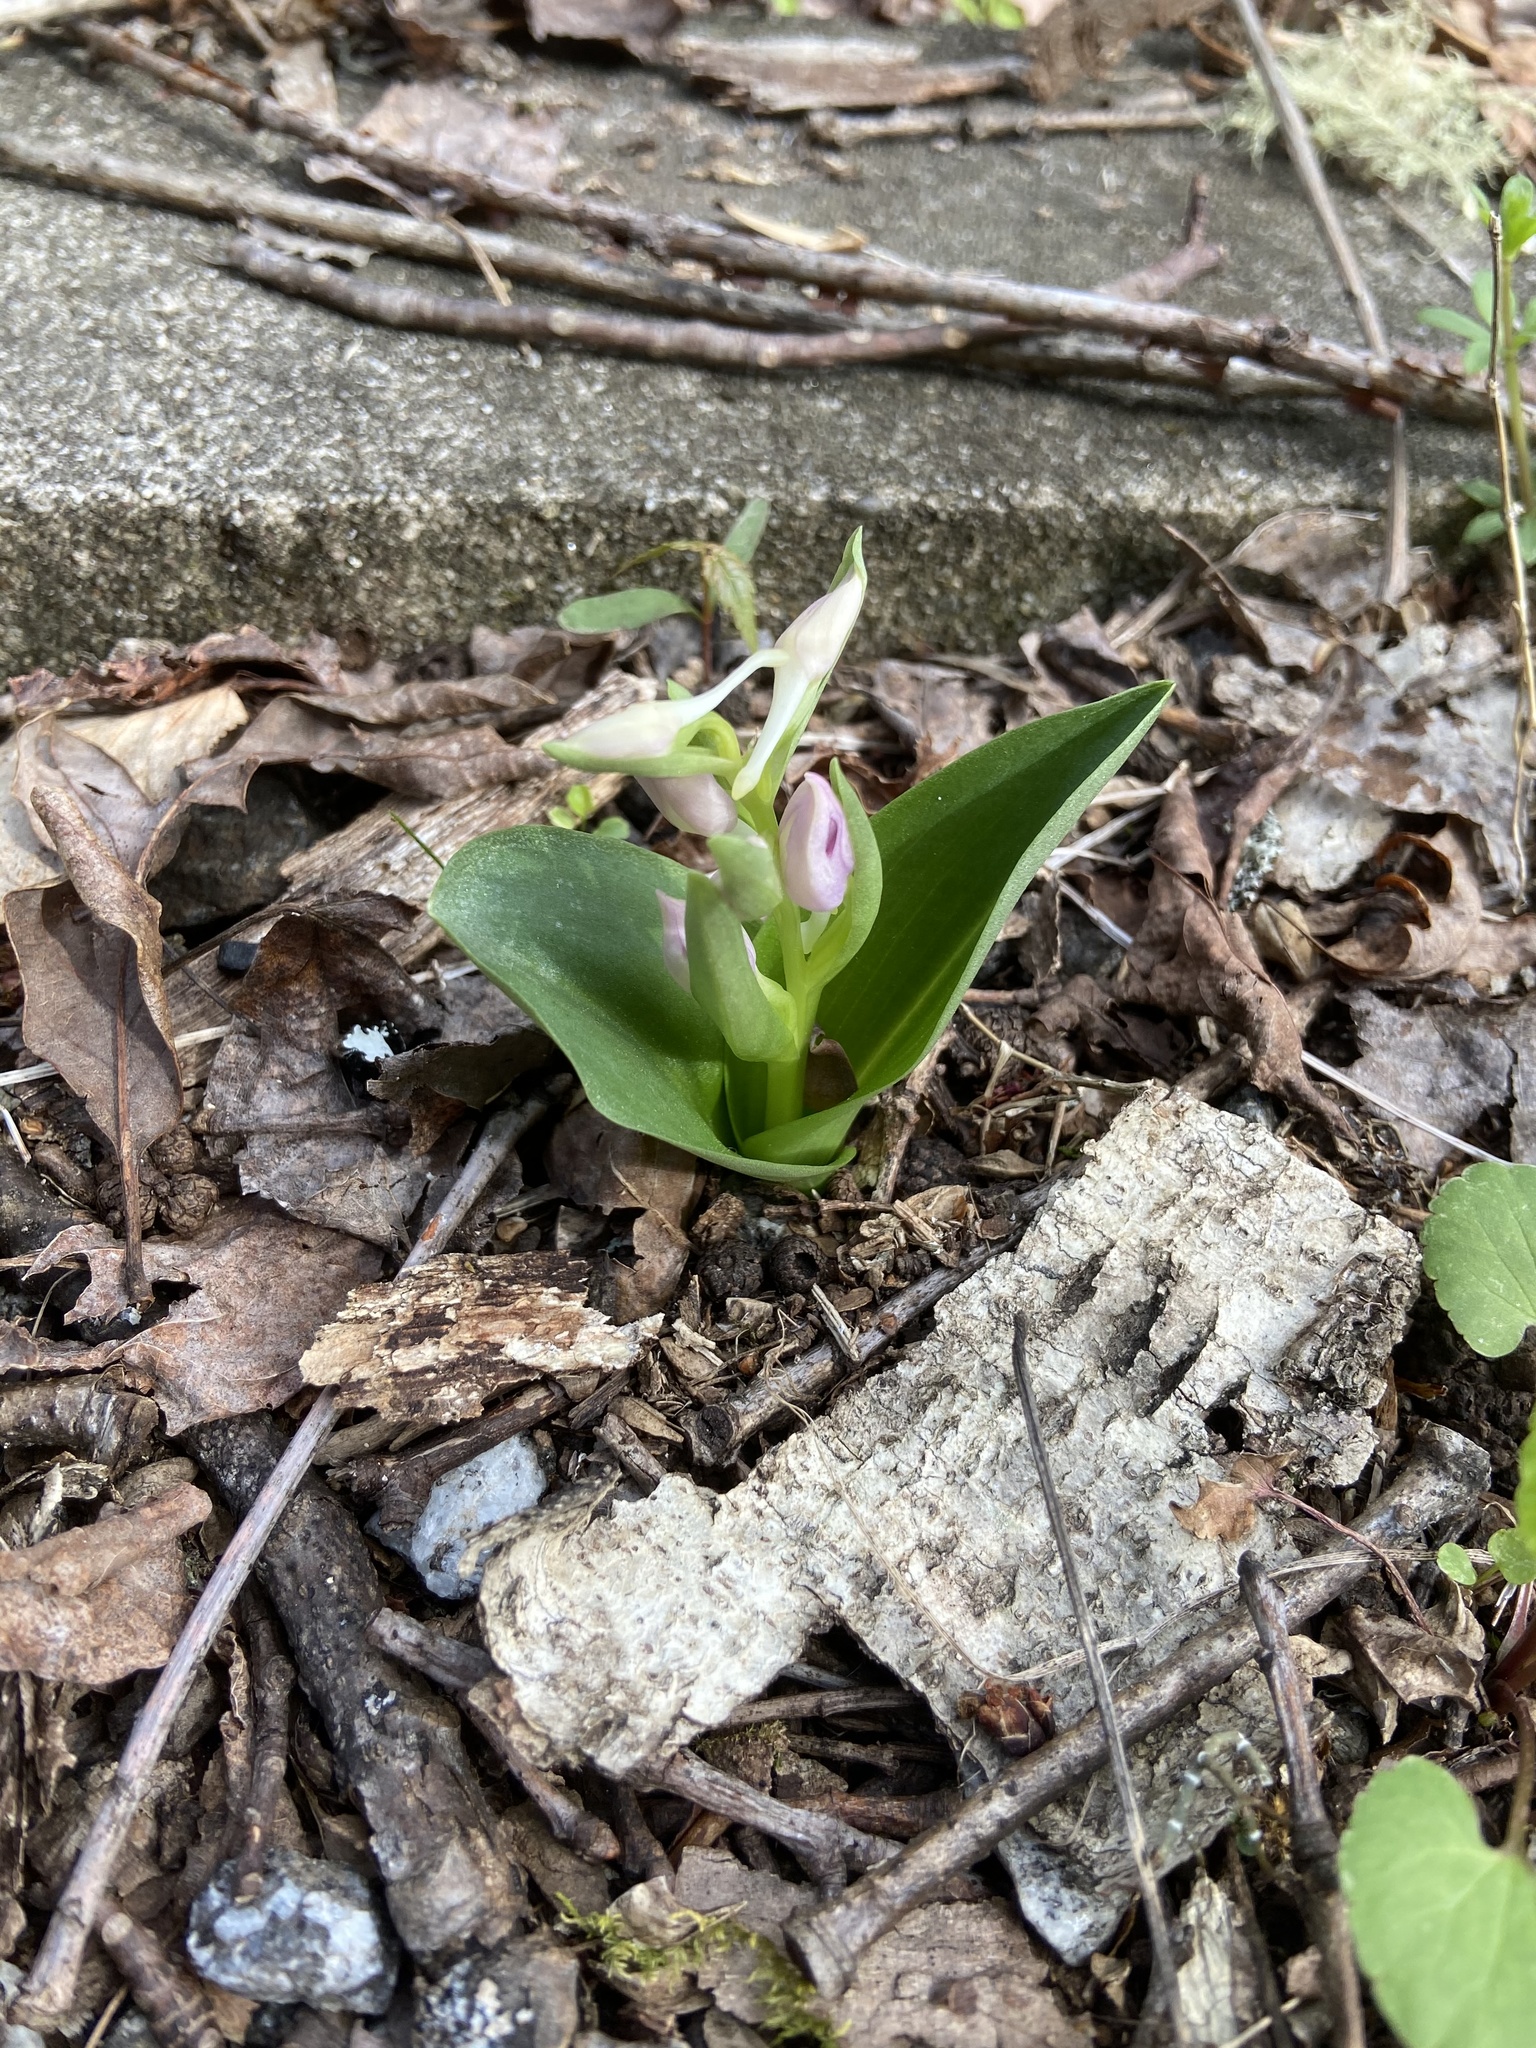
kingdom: Plantae
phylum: Tracheophyta
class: Liliopsida
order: Asparagales
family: Orchidaceae
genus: Galearis
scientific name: Galearis spectabilis
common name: Purple-hooded orchis
